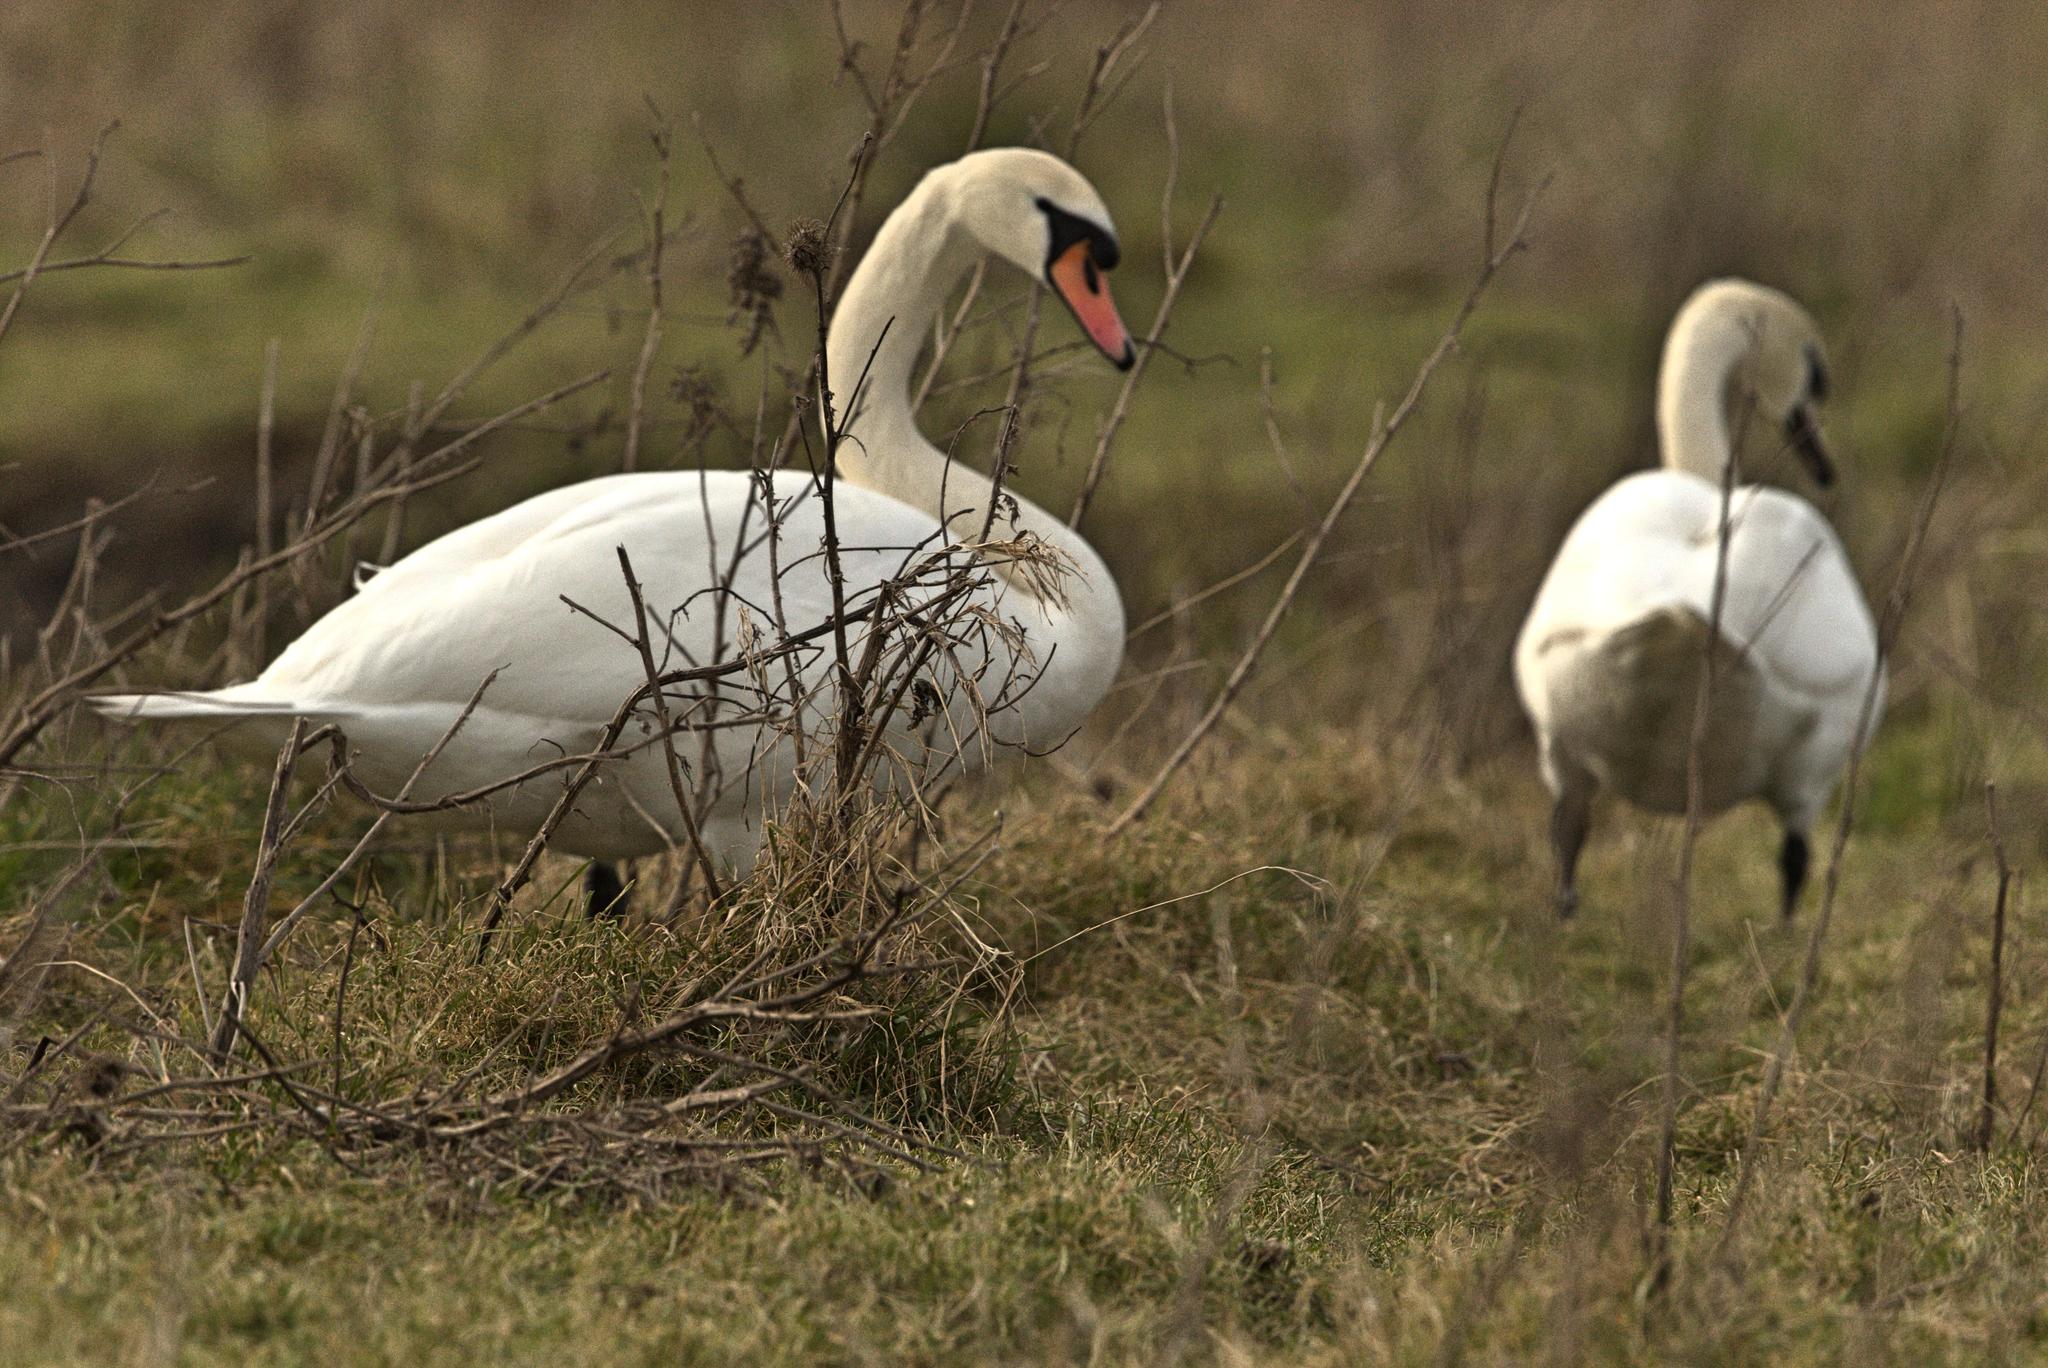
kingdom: Animalia
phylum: Chordata
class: Aves
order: Anseriformes
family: Anatidae
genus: Cygnus
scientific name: Cygnus olor
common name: Mute swan
